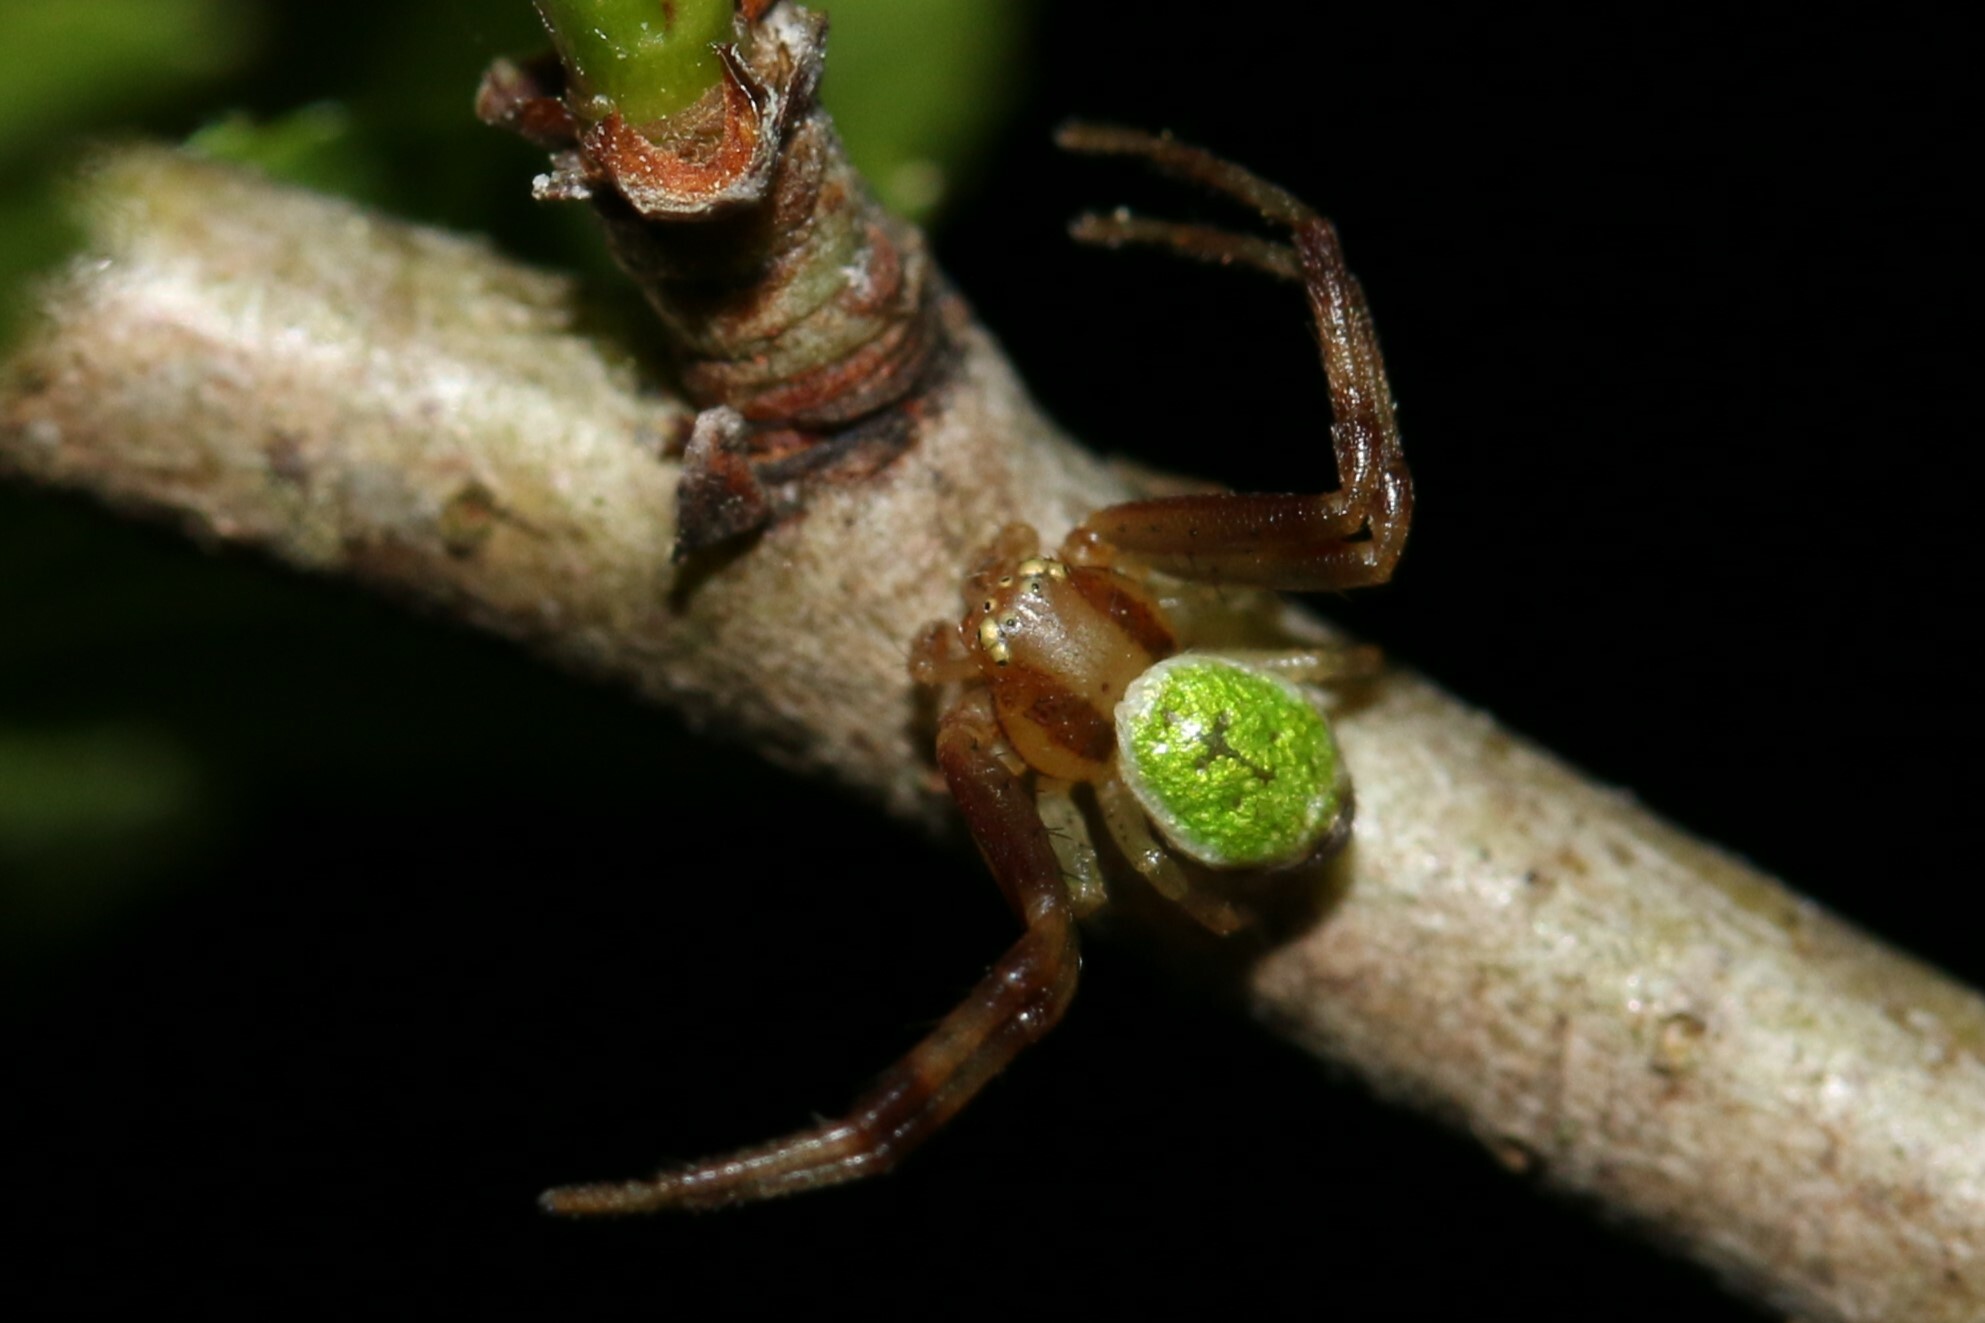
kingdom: Animalia
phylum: Arthropoda
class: Arachnida
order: Araneae
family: Thomisidae
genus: Ebrechtella
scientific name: Ebrechtella tricuspidata
